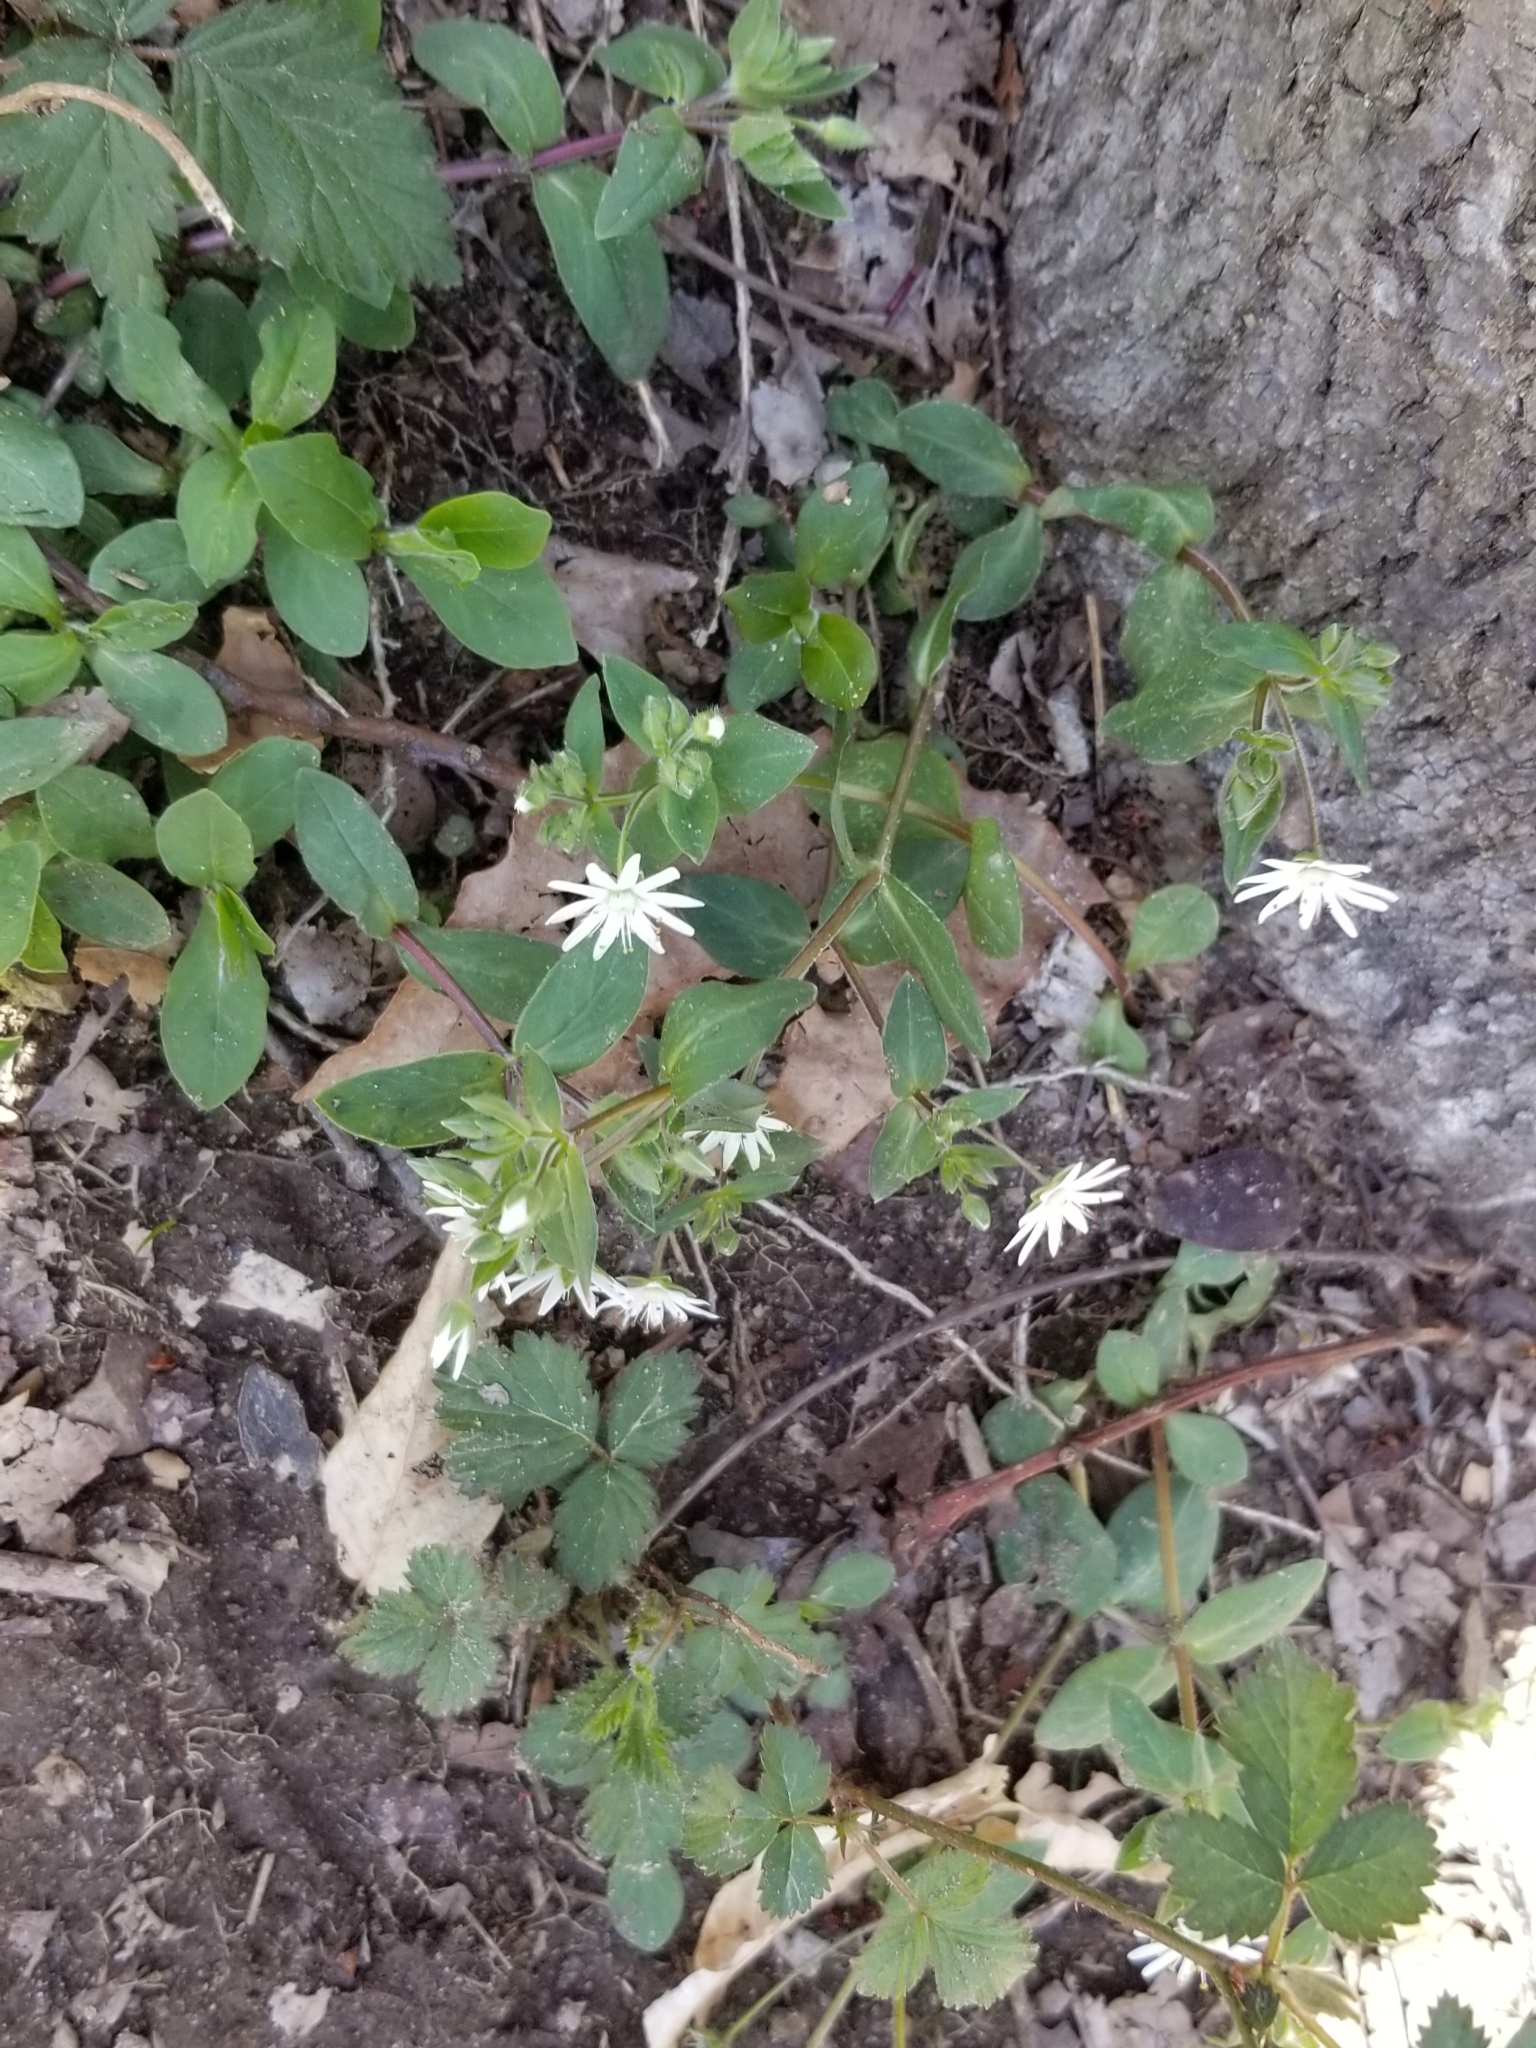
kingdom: Plantae
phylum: Tracheophyta
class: Magnoliopsida
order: Caryophyllales
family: Caryophyllaceae
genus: Stellaria
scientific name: Stellaria pubera
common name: Star chickweed
